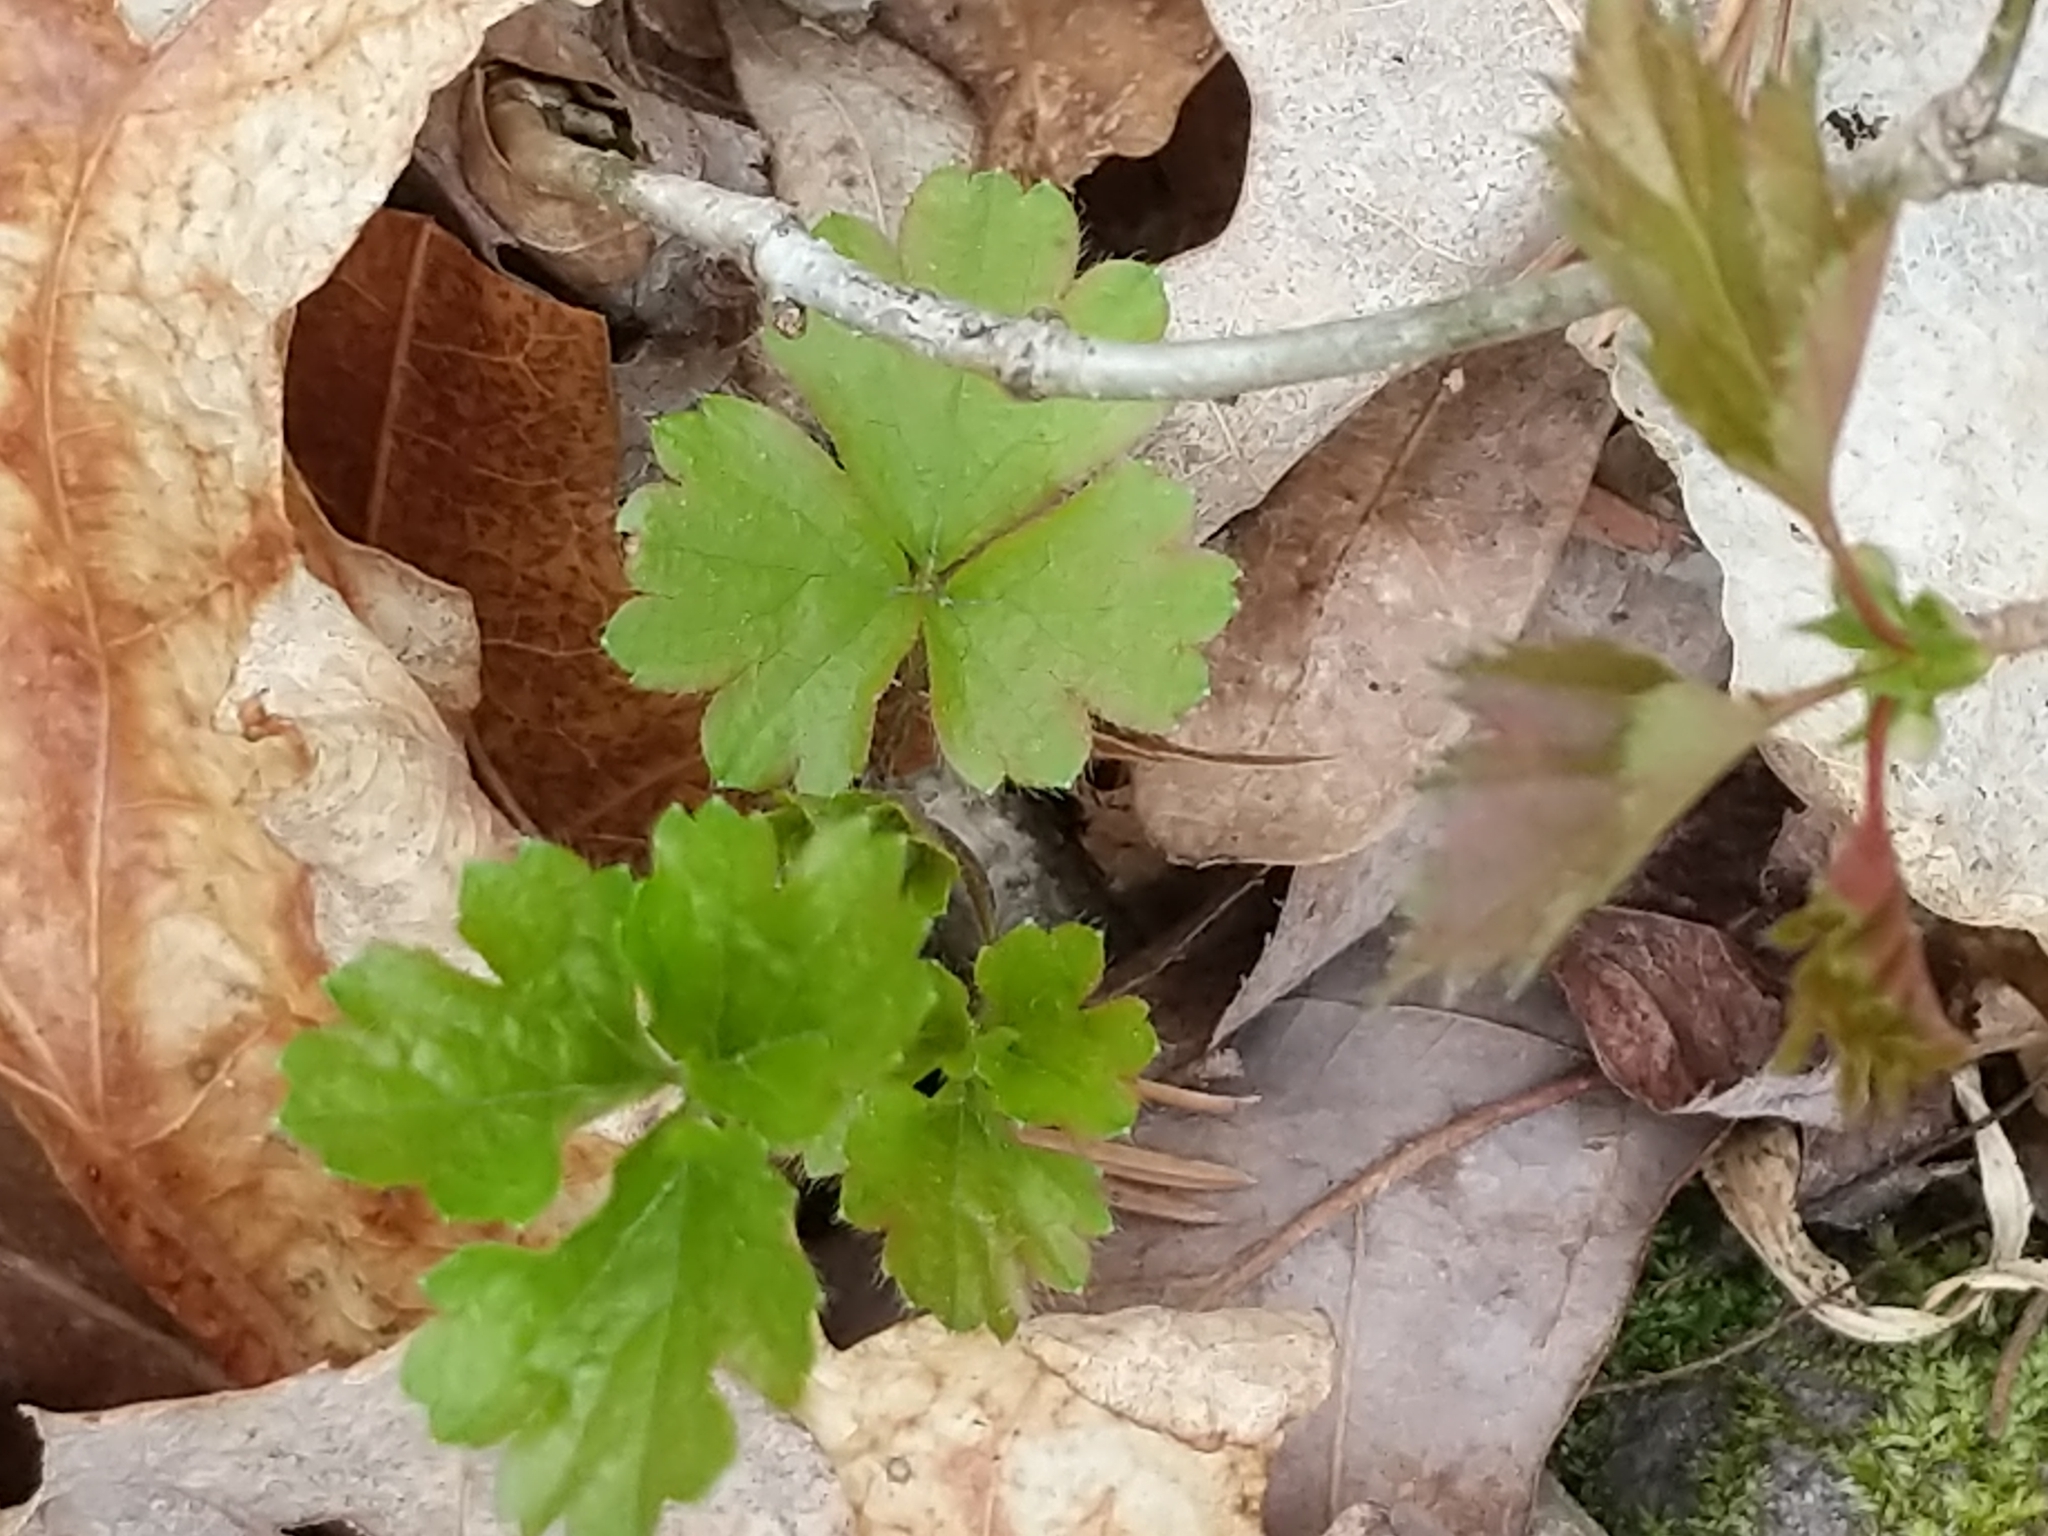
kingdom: Plantae
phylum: Tracheophyta
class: Magnoliopsida
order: Rosales
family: Rosaceae
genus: Geum
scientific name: Geum fragarioides
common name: Appalachian barren strawberry
